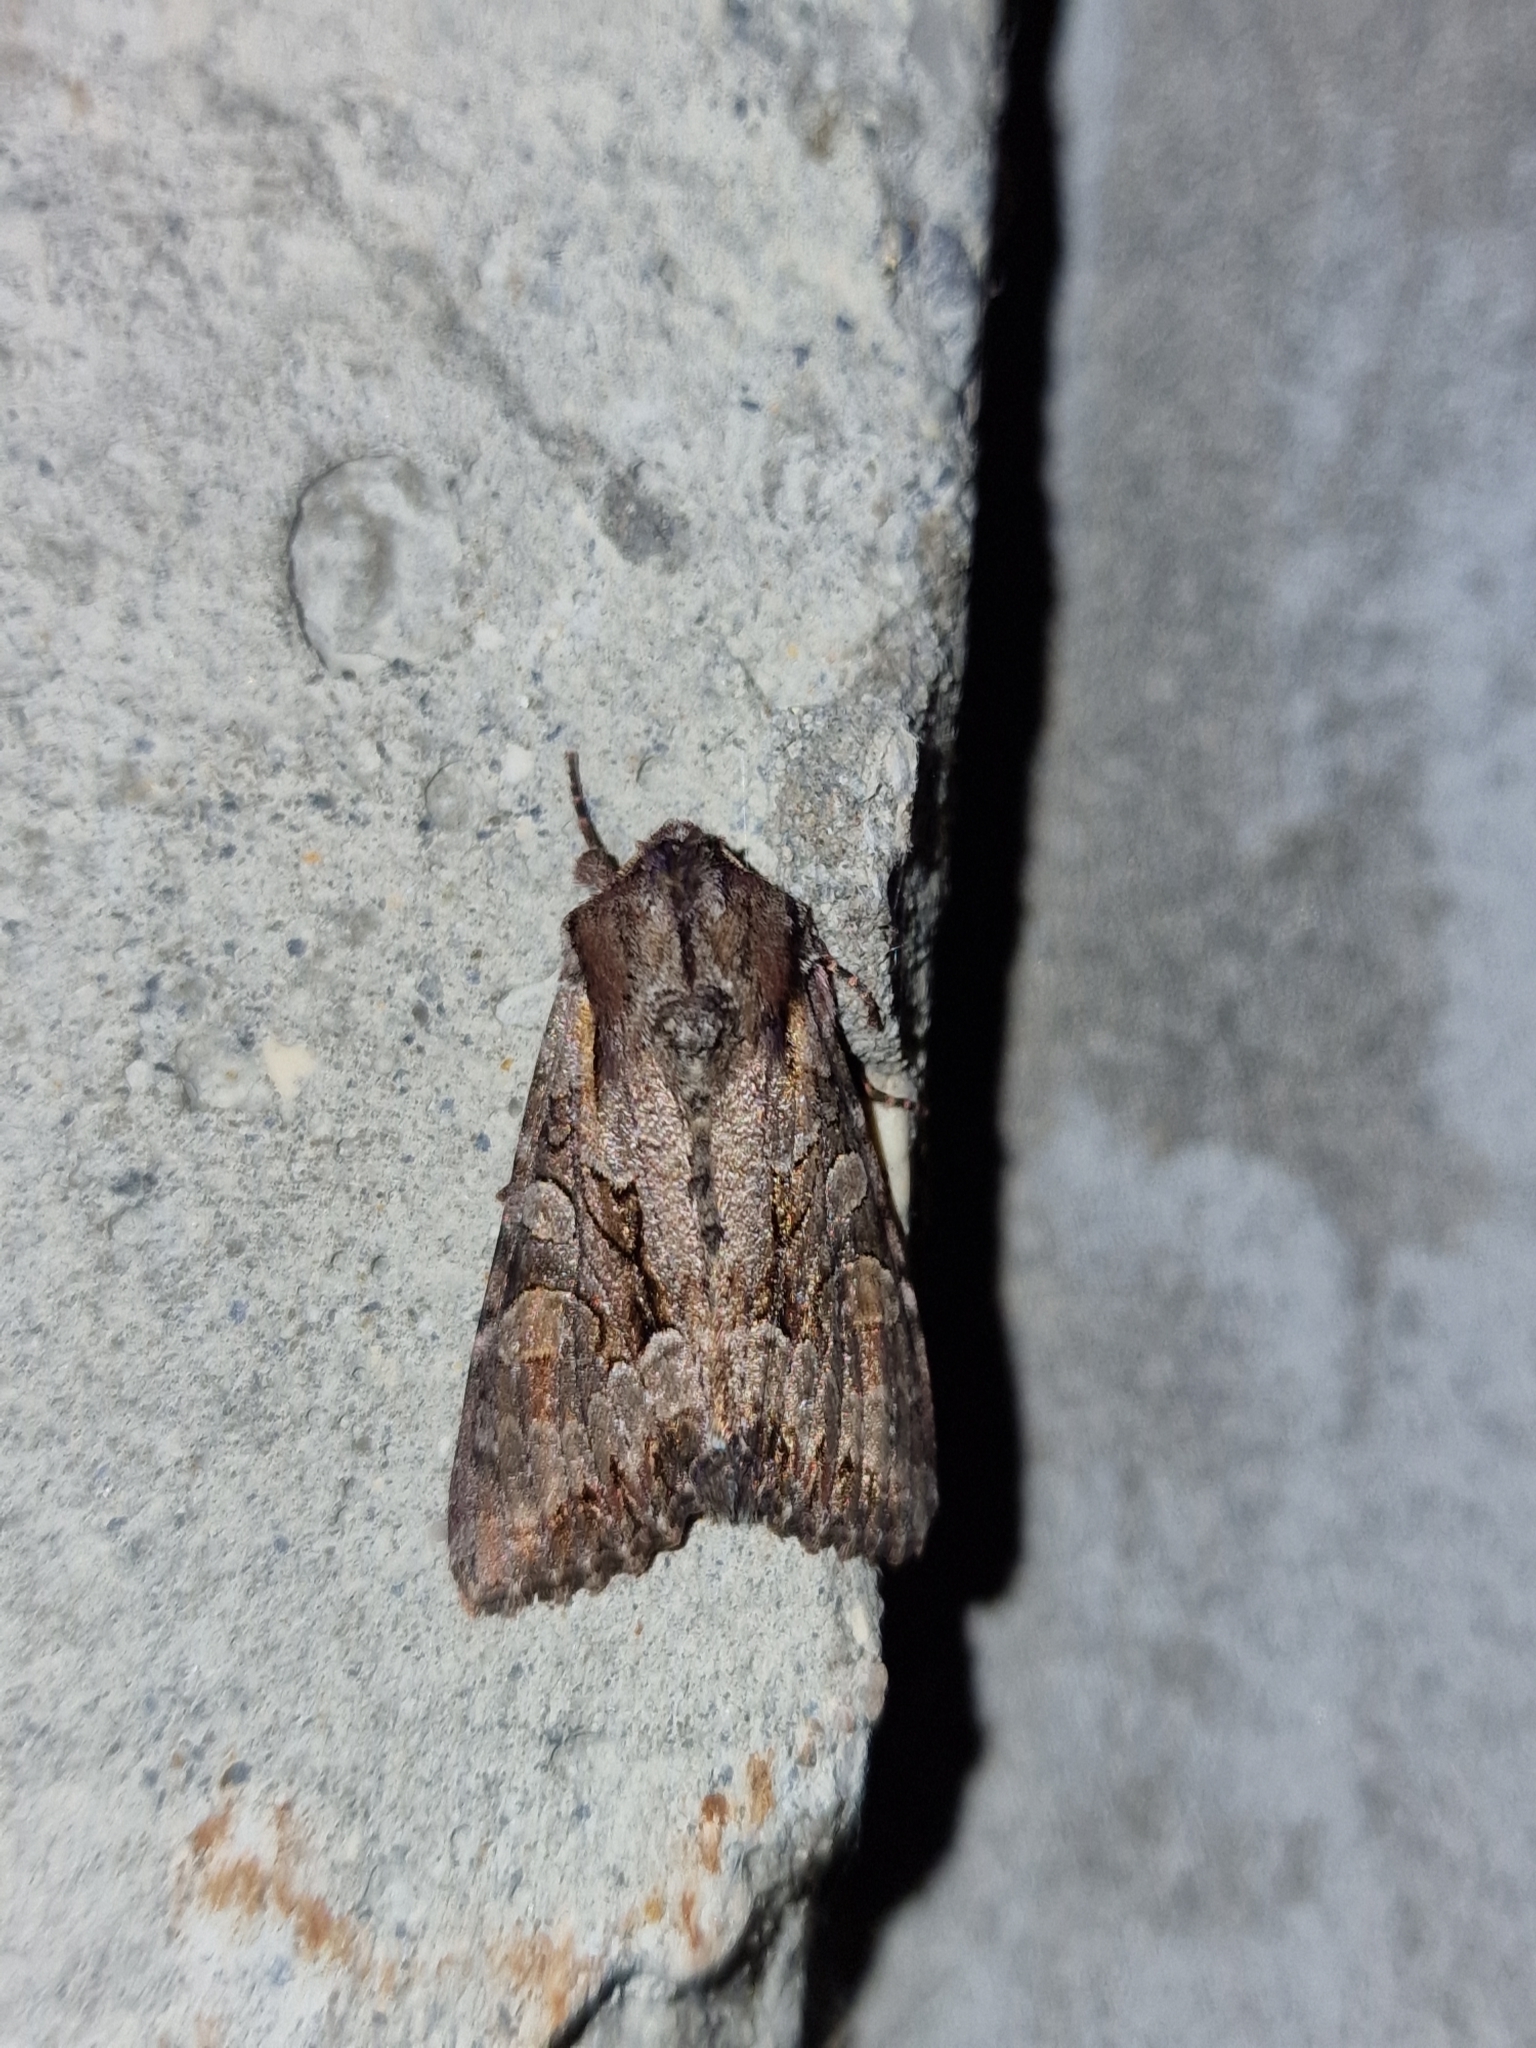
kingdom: Animalia
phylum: Arthropoda
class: Insecta
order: Lepidoptera
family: Noctuidae
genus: Lacanobia
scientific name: Lacanobia w-latinum
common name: Light brocade
